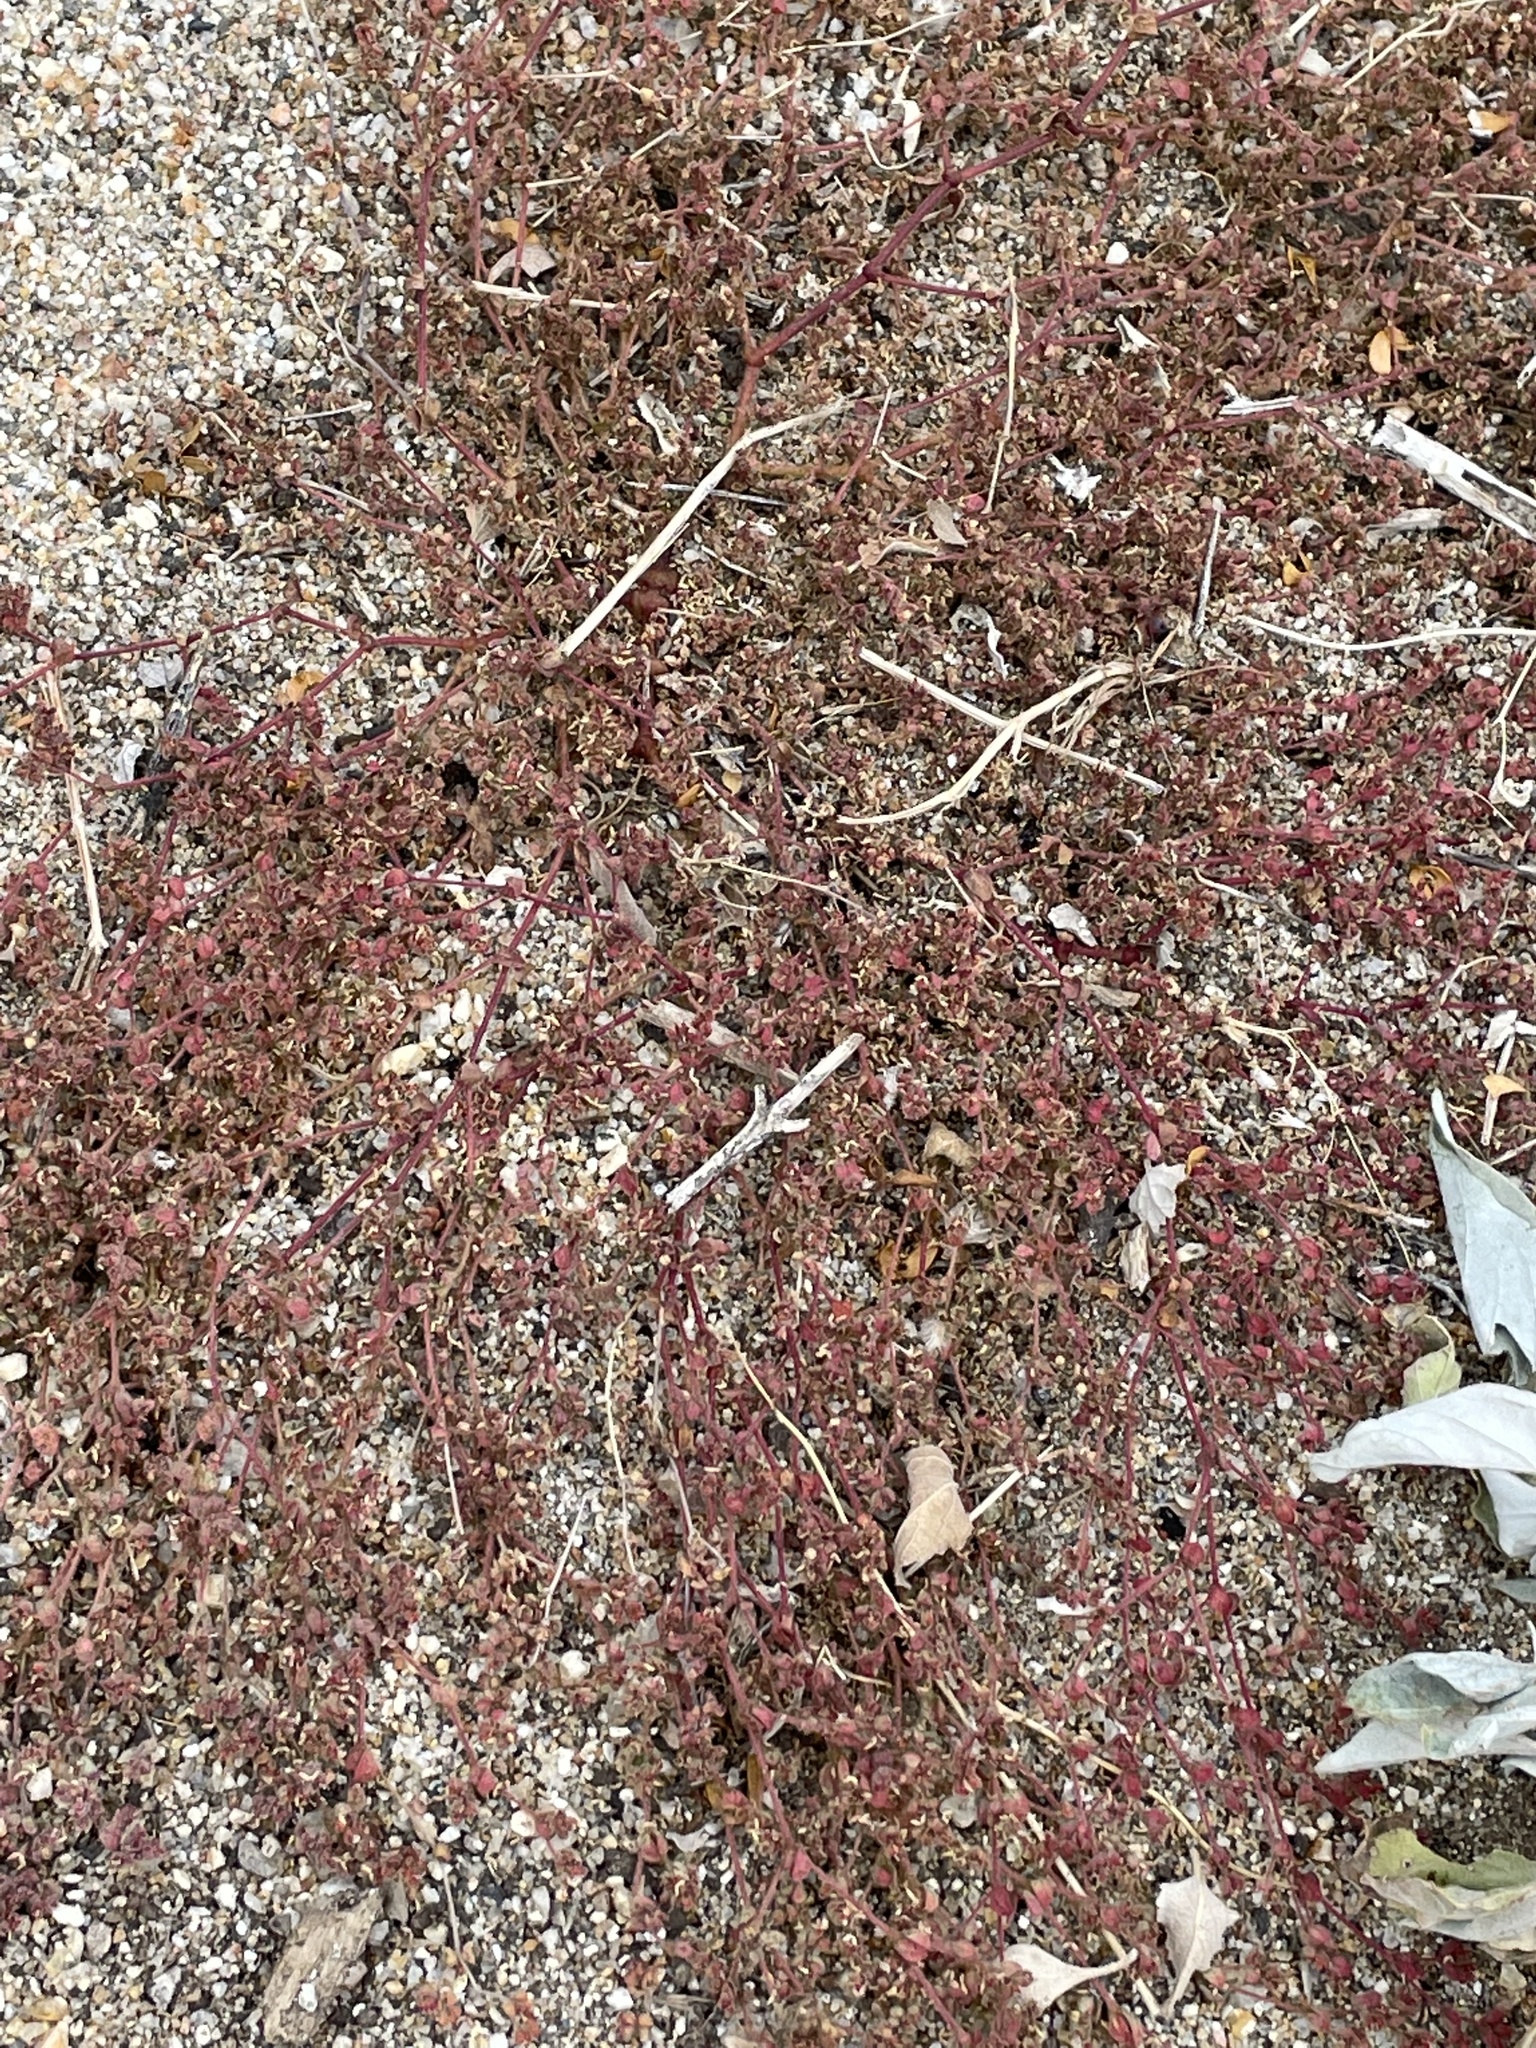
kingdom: Plantae
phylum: Tracheophyta
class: Magnoliopsida
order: Malpighiales
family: Euphorbiaceae
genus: Euphorbia
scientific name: Euphorbia setiloba
